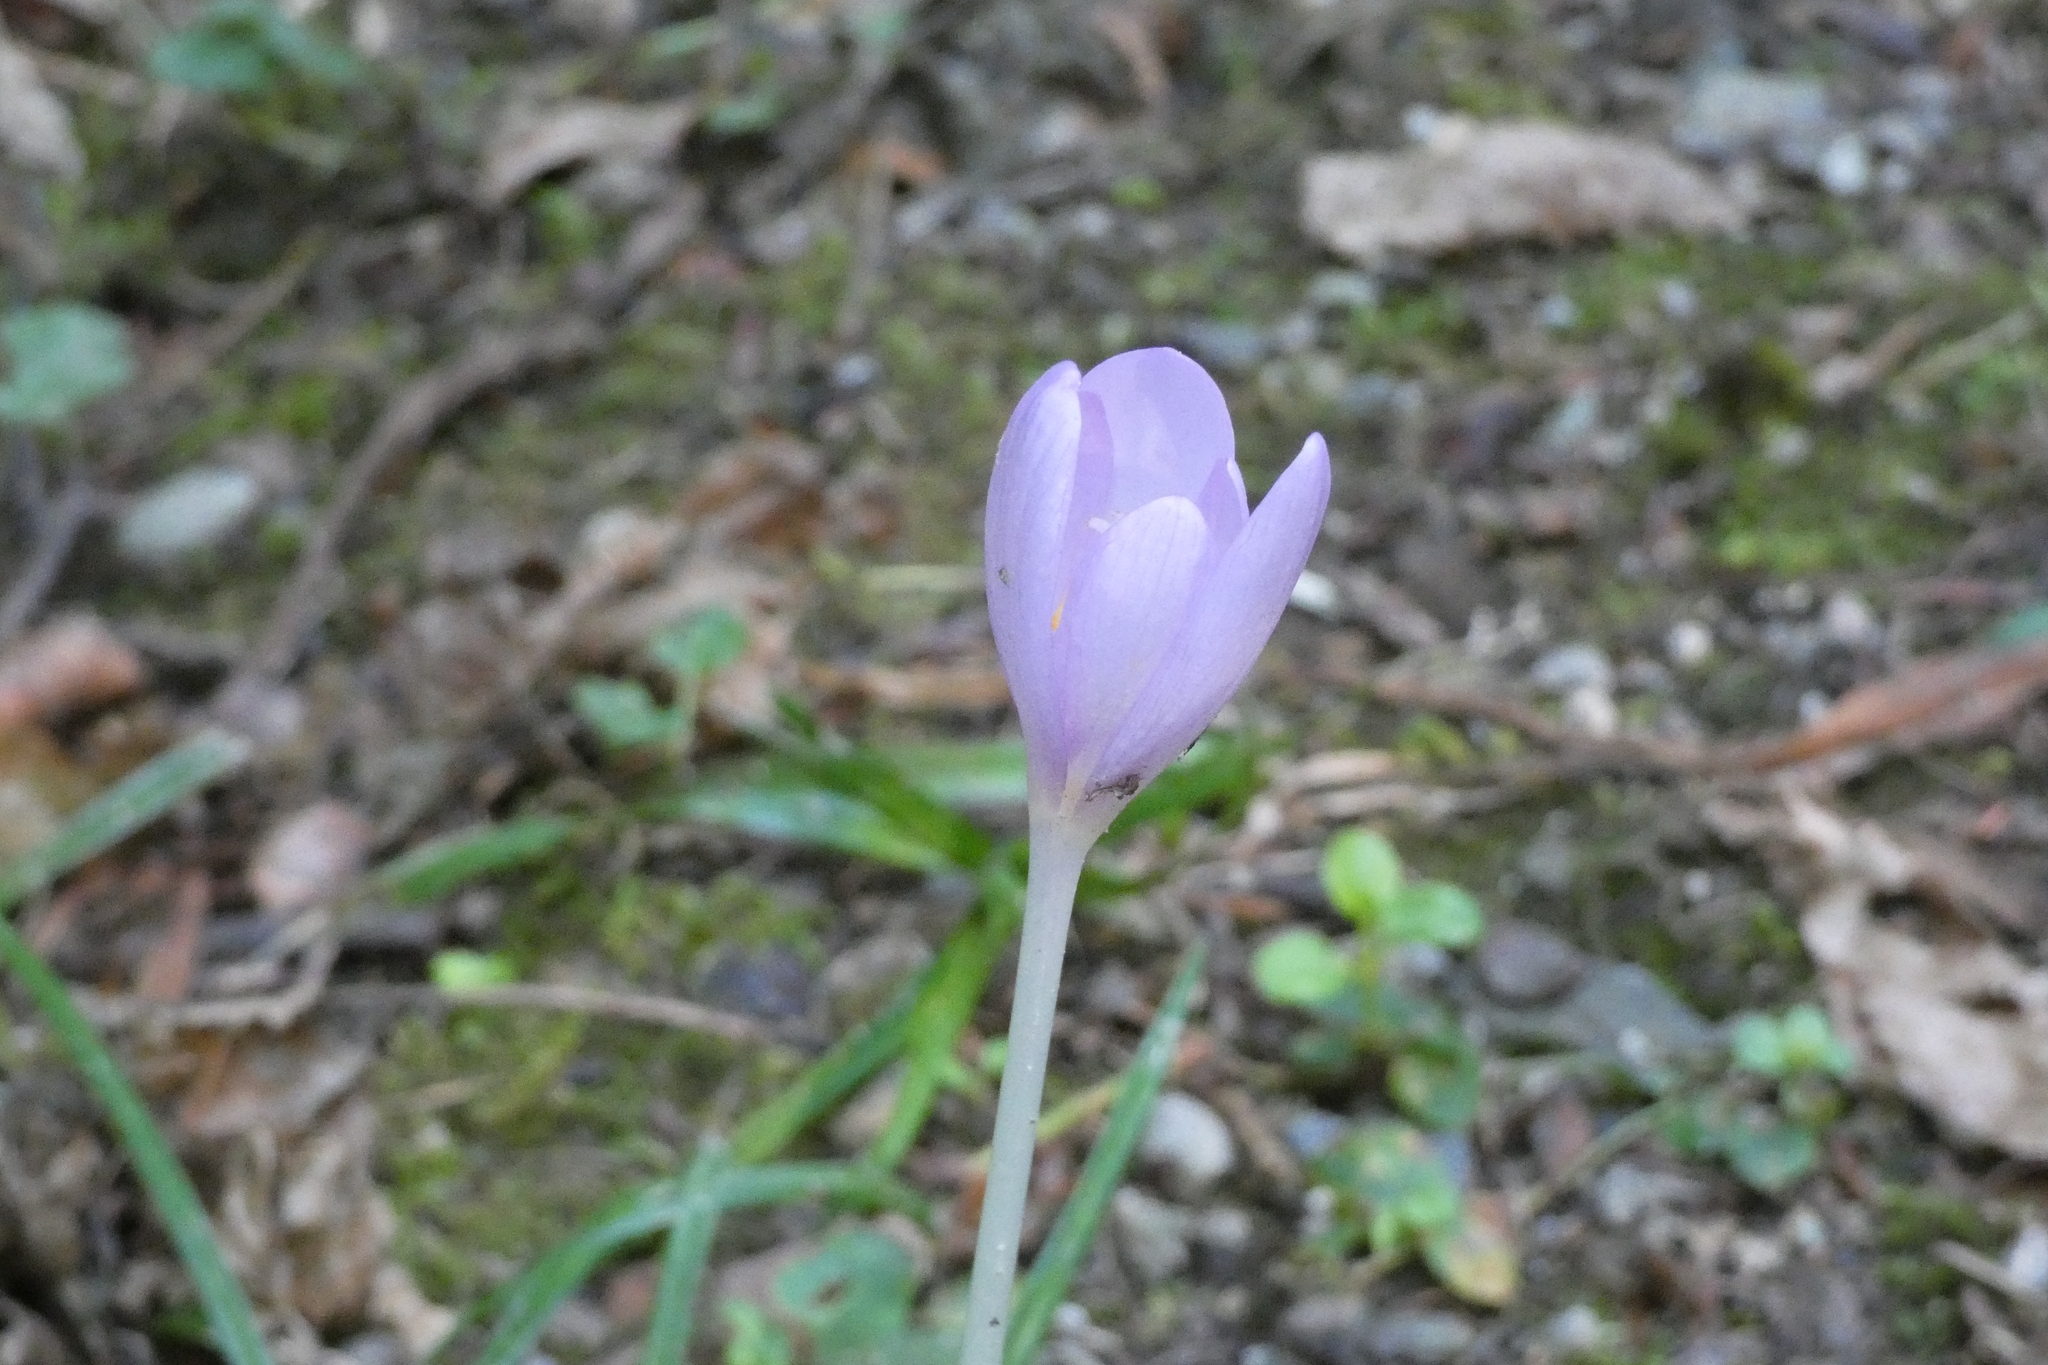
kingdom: Plantae
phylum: Tracheophyta
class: Liliopsida
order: Liliales
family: Colchicaceae
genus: Colchicum
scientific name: Colchicum autumnale
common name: Autumn crocus
